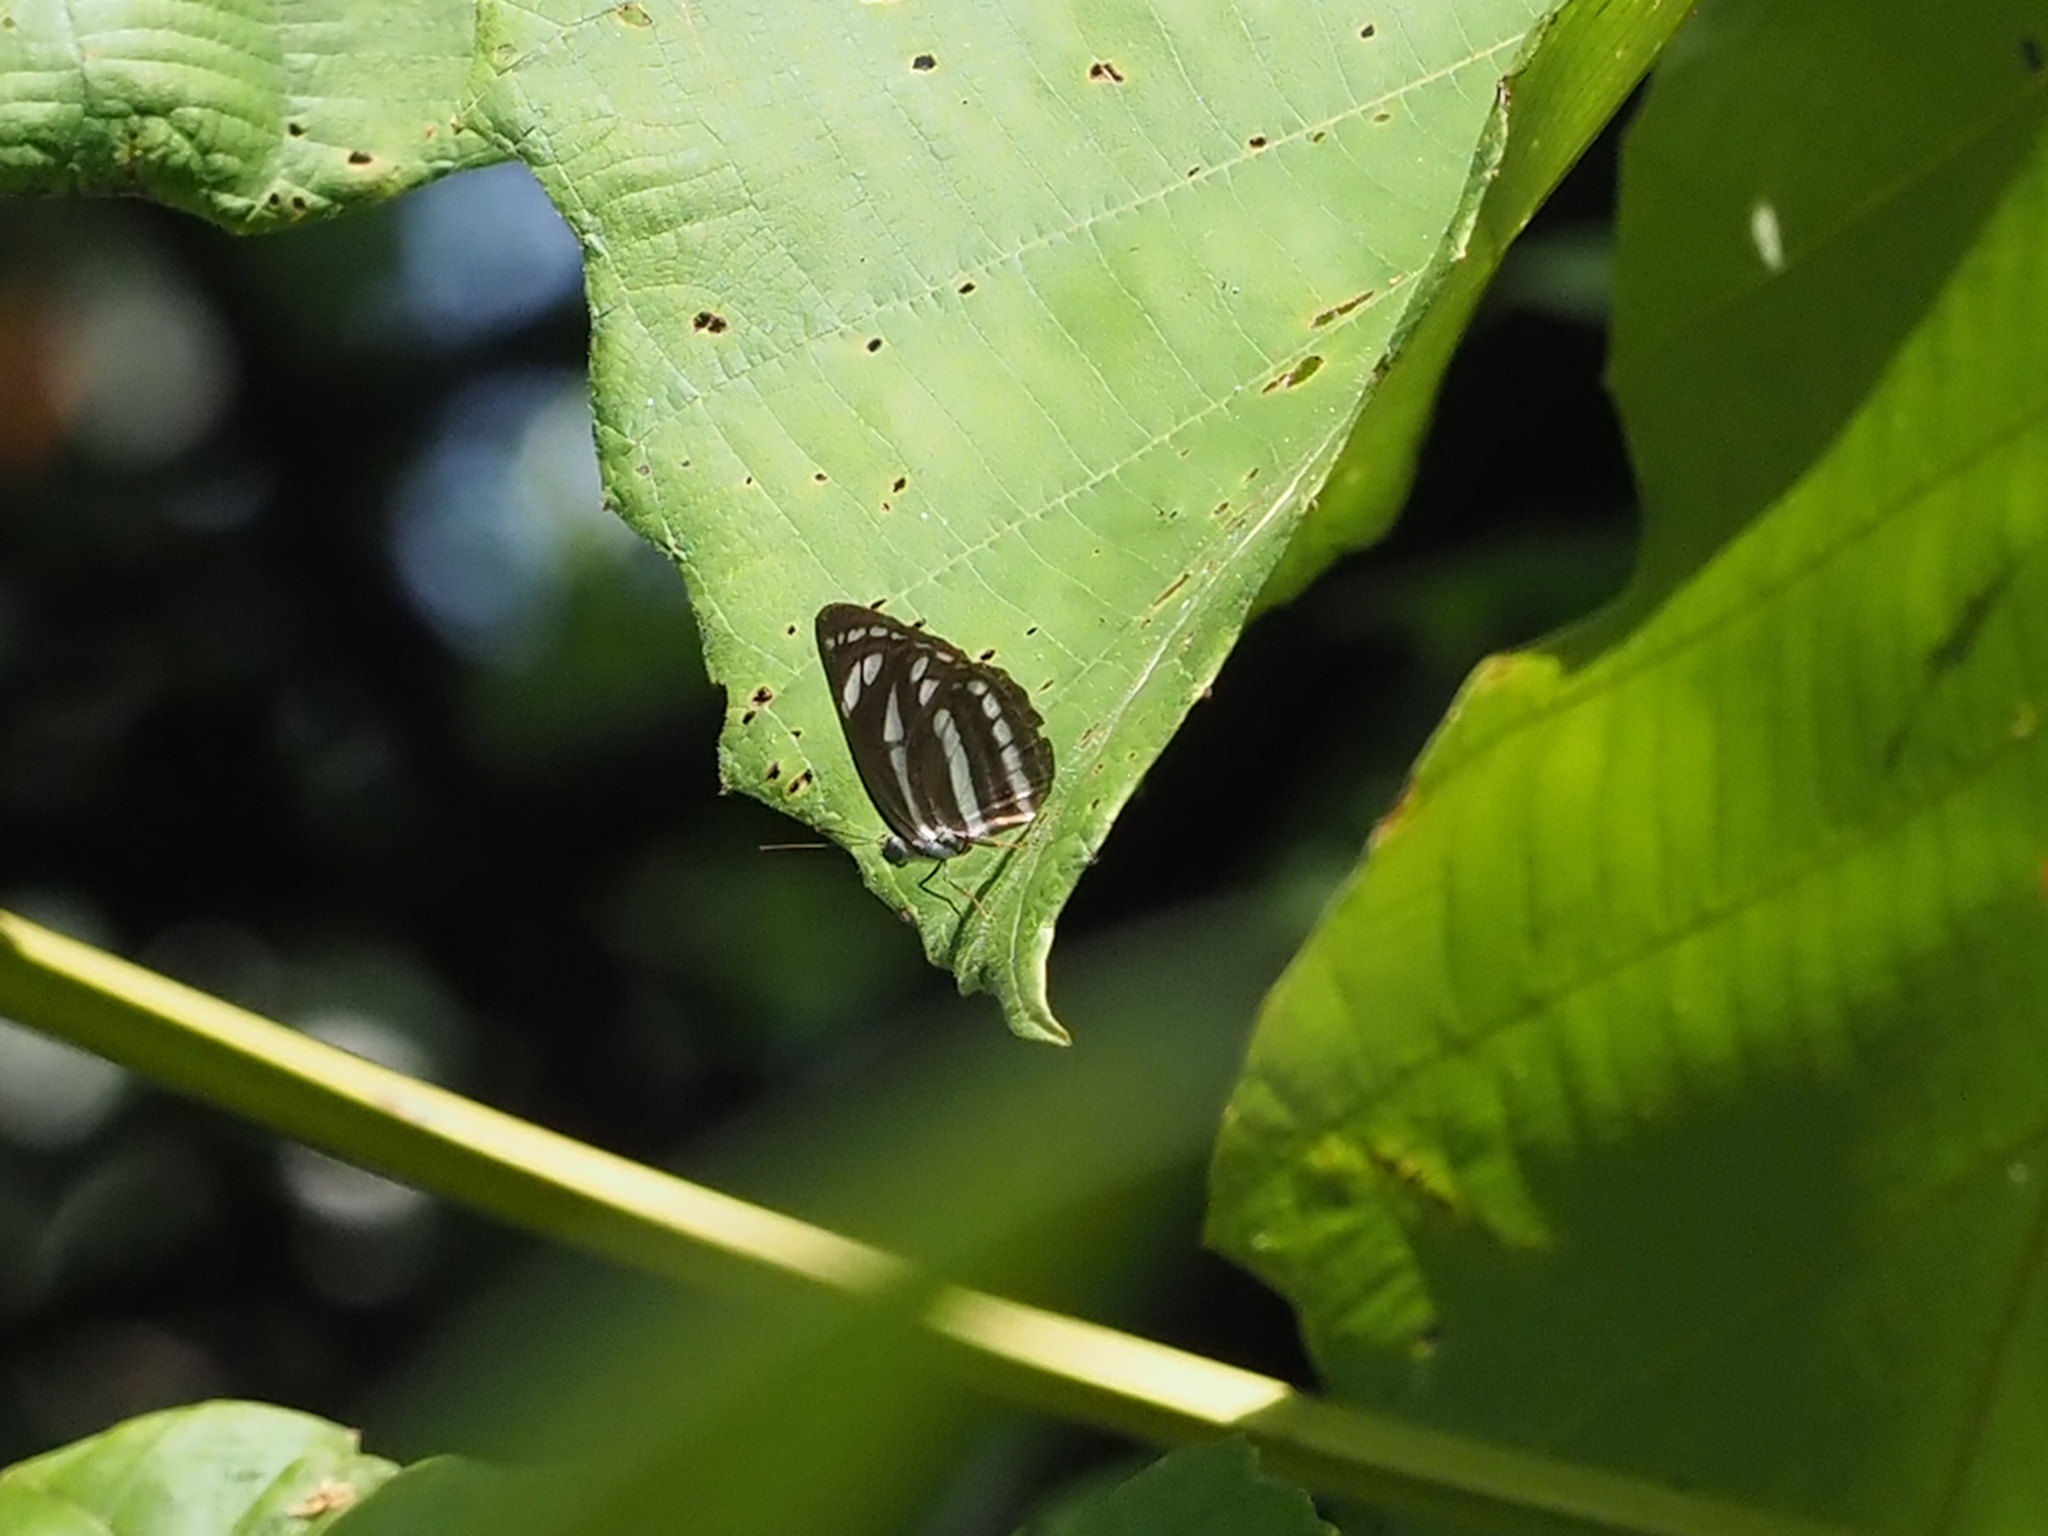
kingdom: Animalia
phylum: Arthropoda
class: Insecta
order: Lepidoptera
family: Nymphalidae
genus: Neptis
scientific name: Neptis leucoporos
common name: Grey sailer
